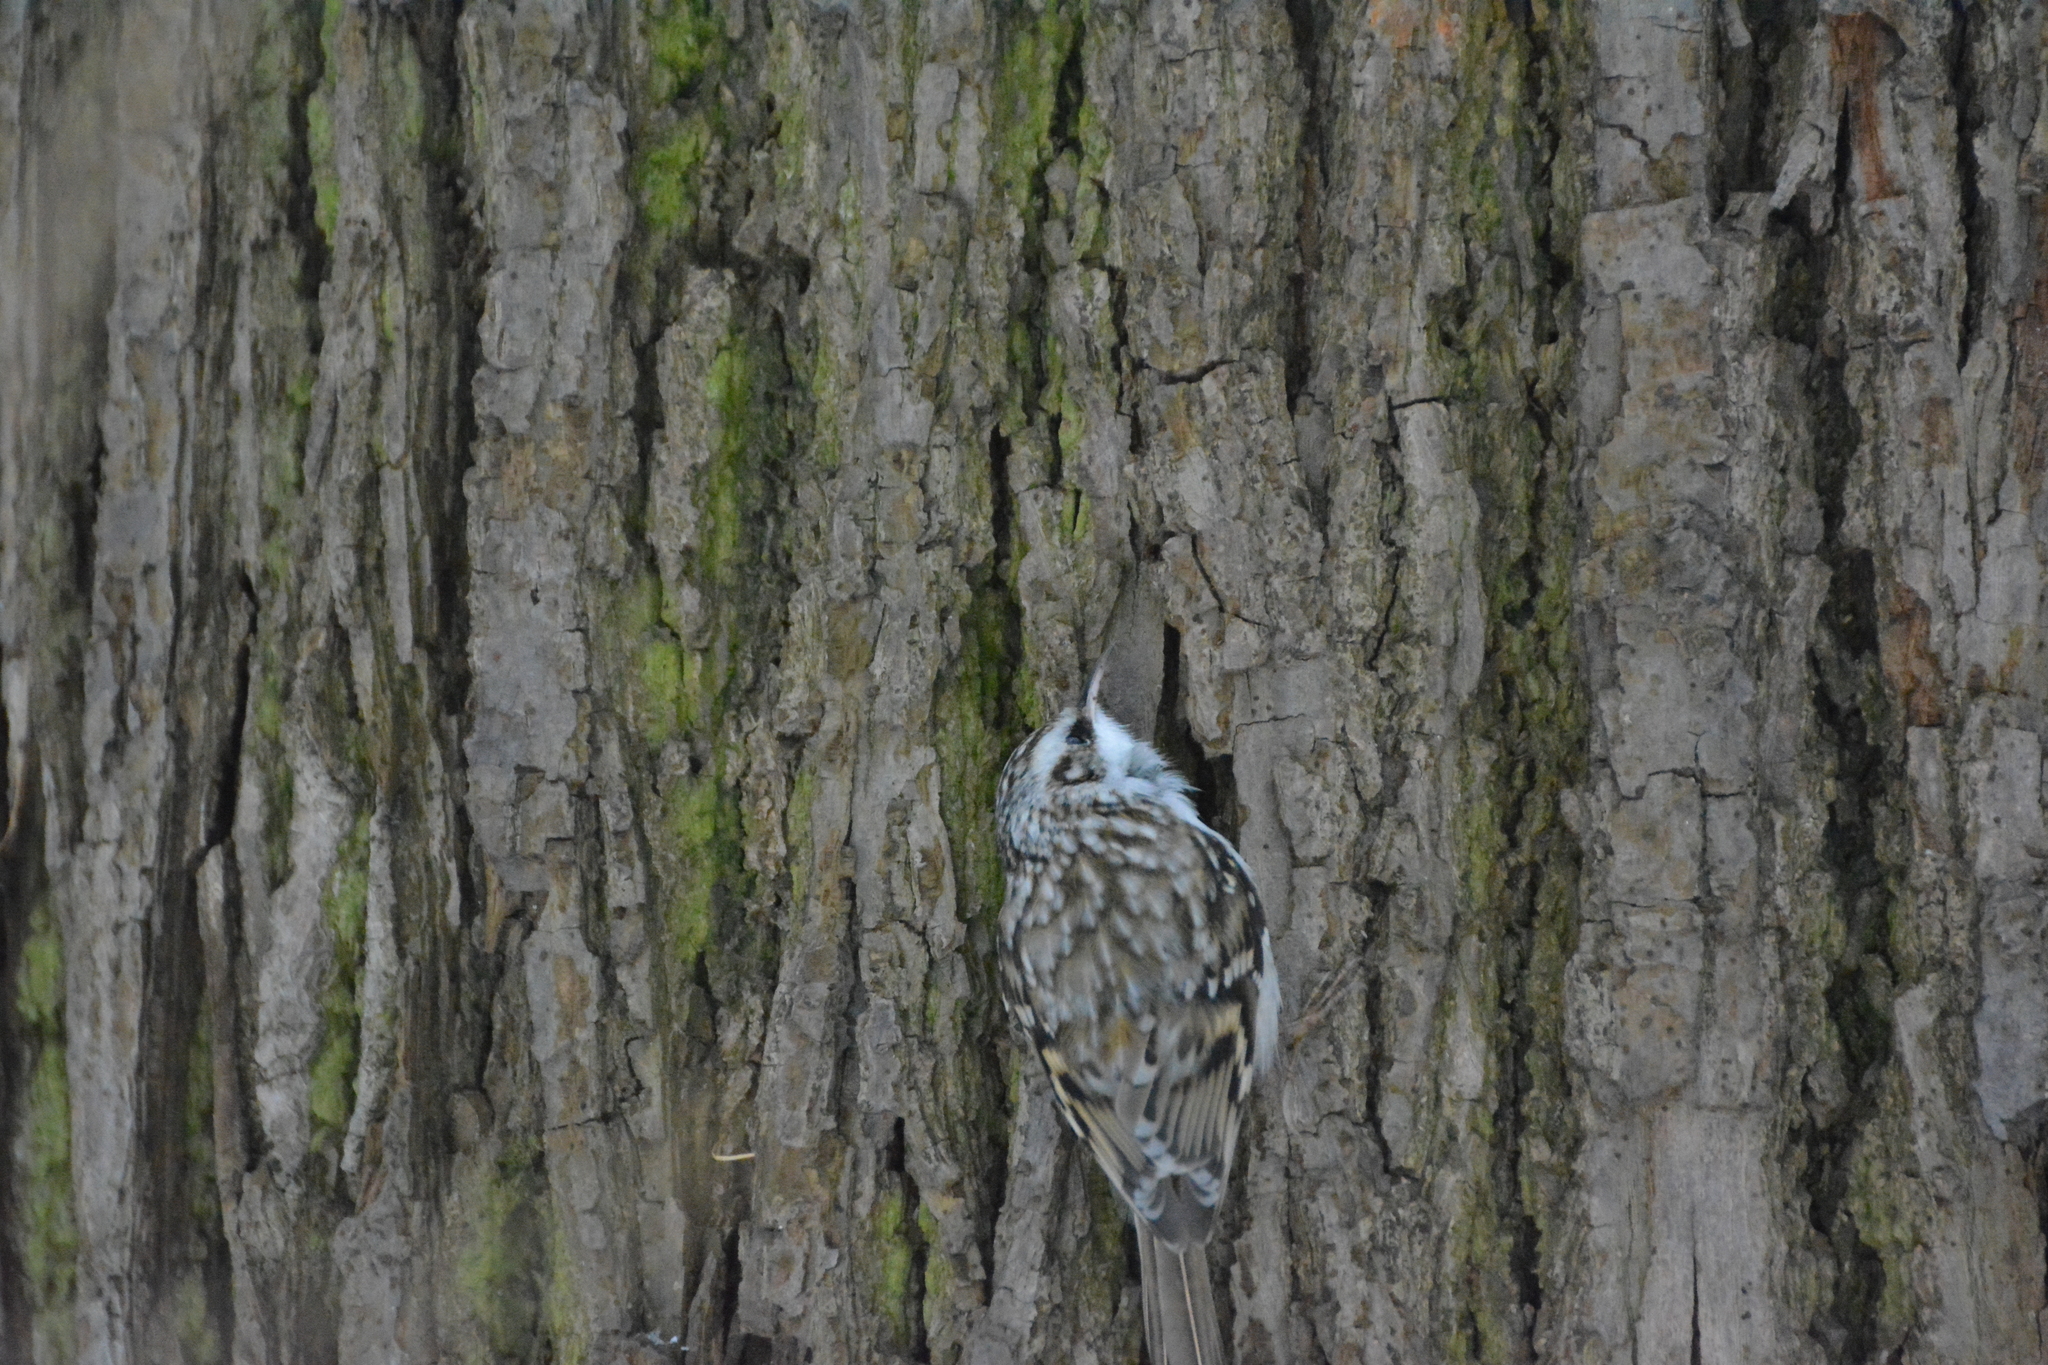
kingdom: Animalia
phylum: Chordata
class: Aves
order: Passeriformes
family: Certhiidae
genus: Certhia
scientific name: Certhia familiaris
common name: Eurasian treecreeper
